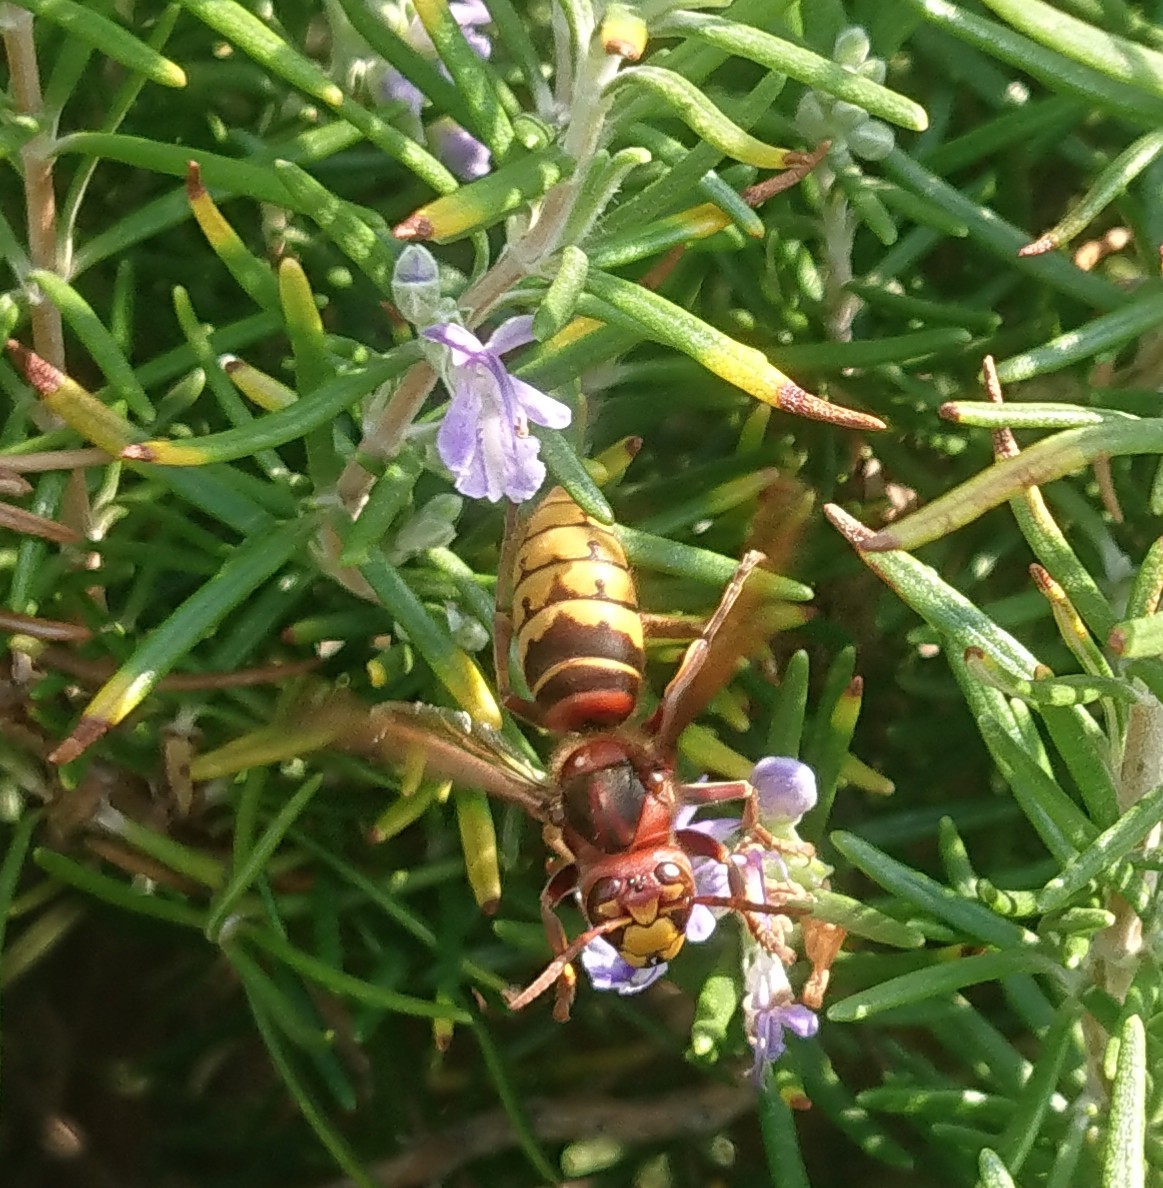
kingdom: Animalia
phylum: Arthropoda
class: Insecta
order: Hymenoptera
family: Vespidae
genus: Vespa
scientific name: Vespa crabro
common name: Hornet
